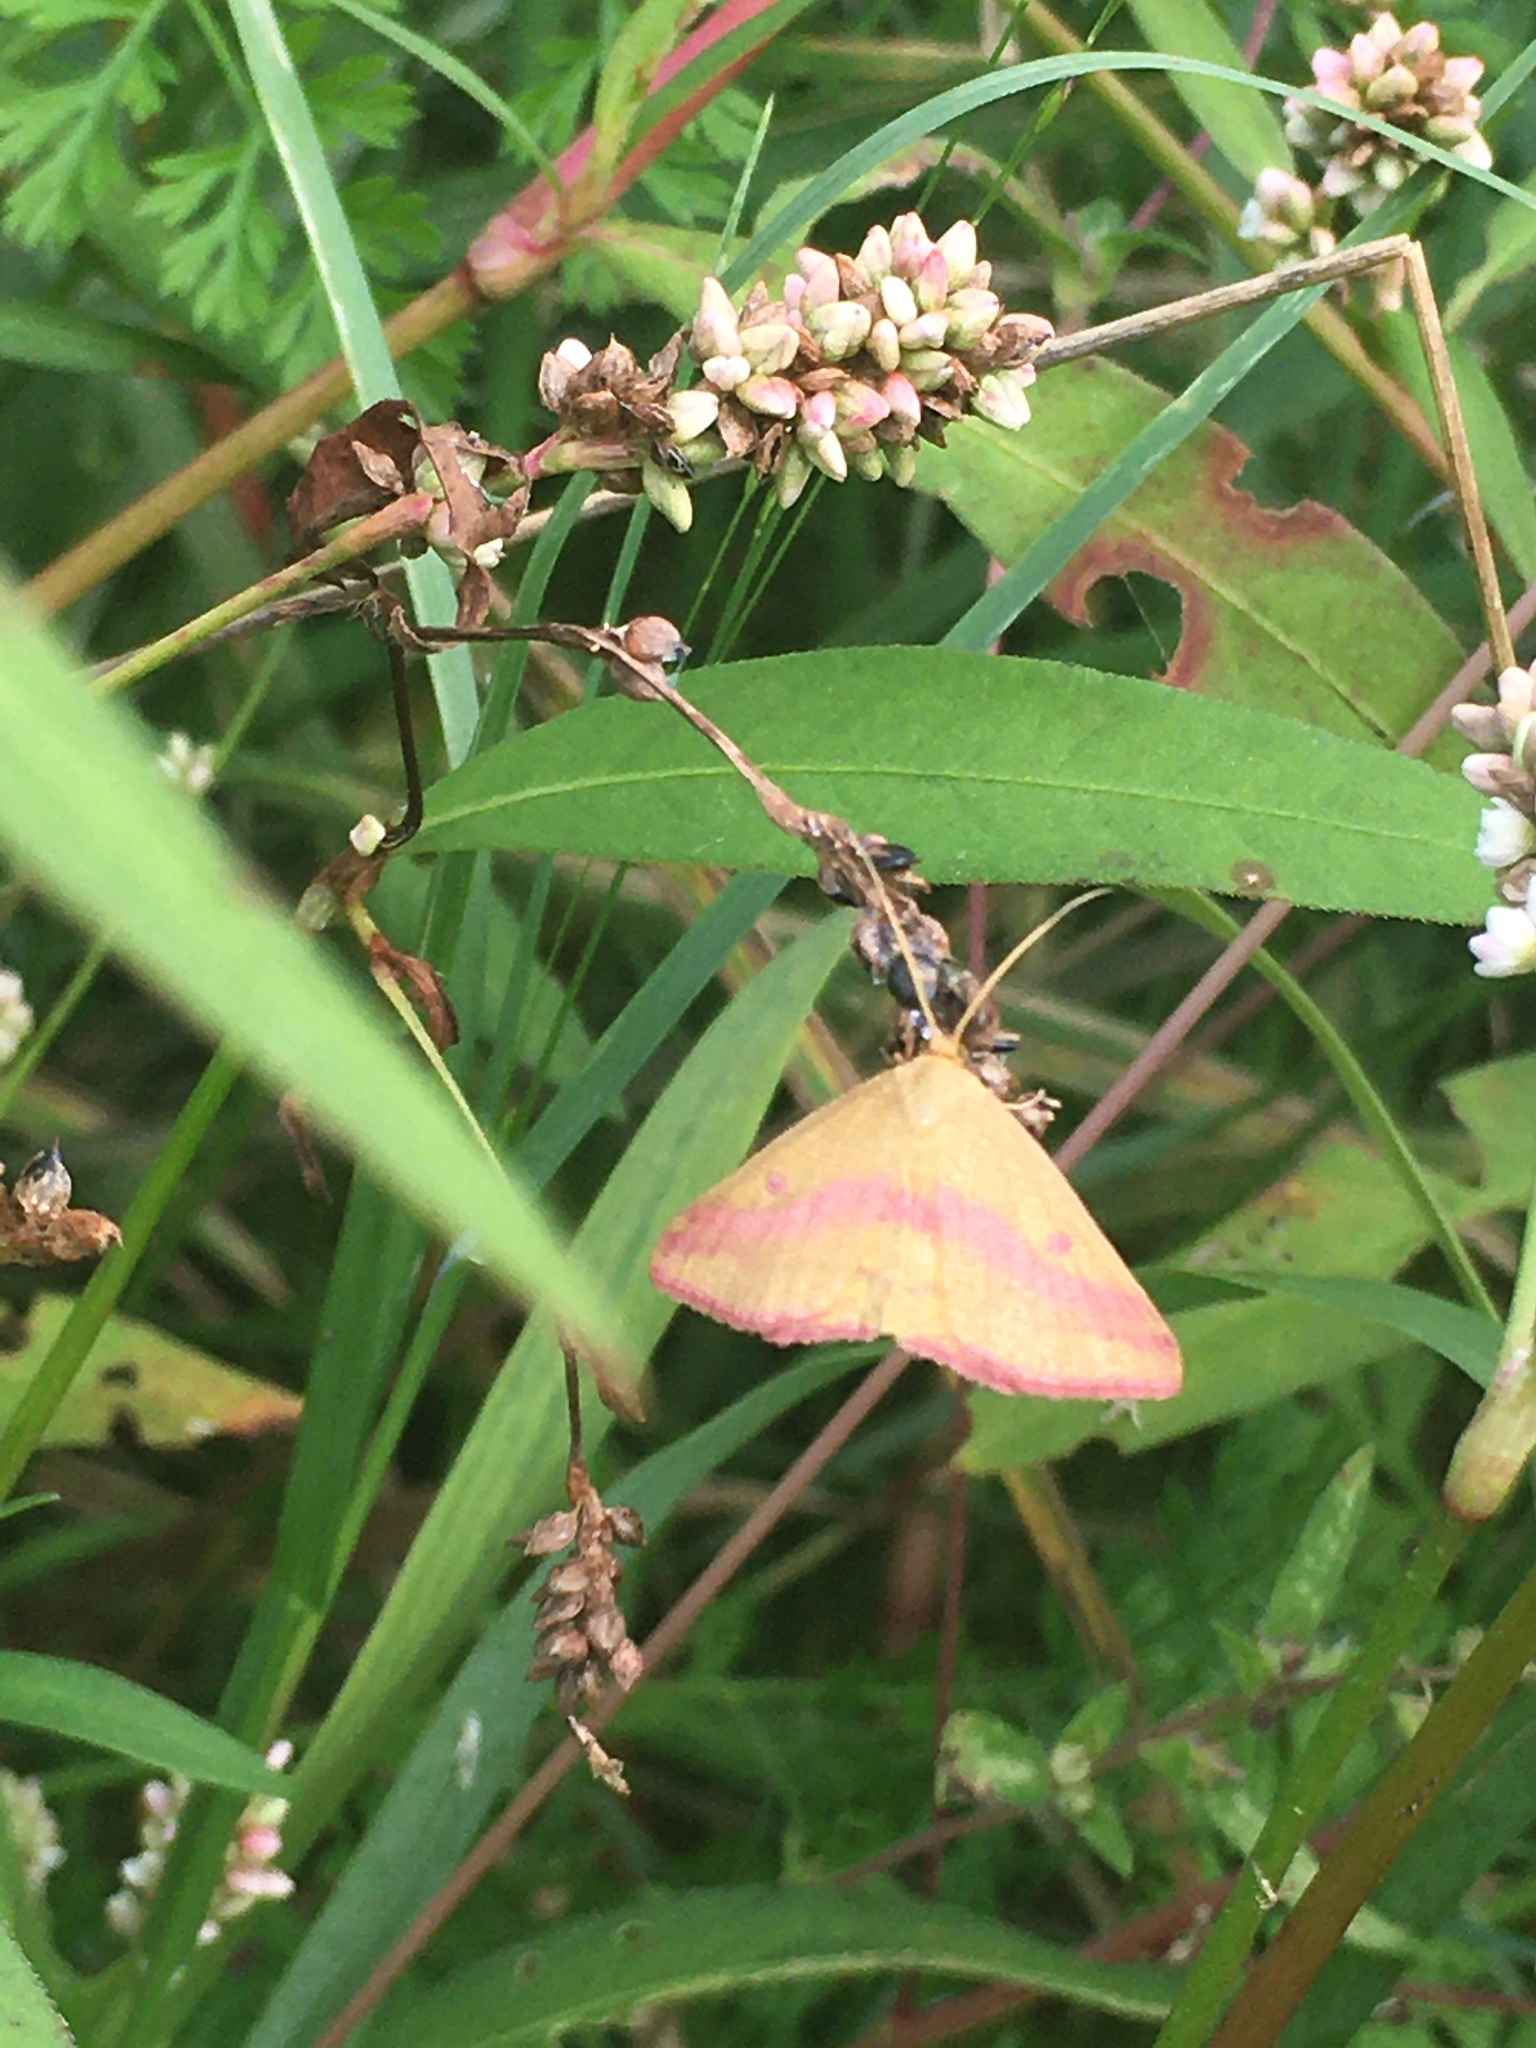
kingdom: Animalia
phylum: Arthropoda
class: Insecta
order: Lepidoptera
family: Geometridae
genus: Haematopis
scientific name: Haematopis grataria
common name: Chickweed geometer
